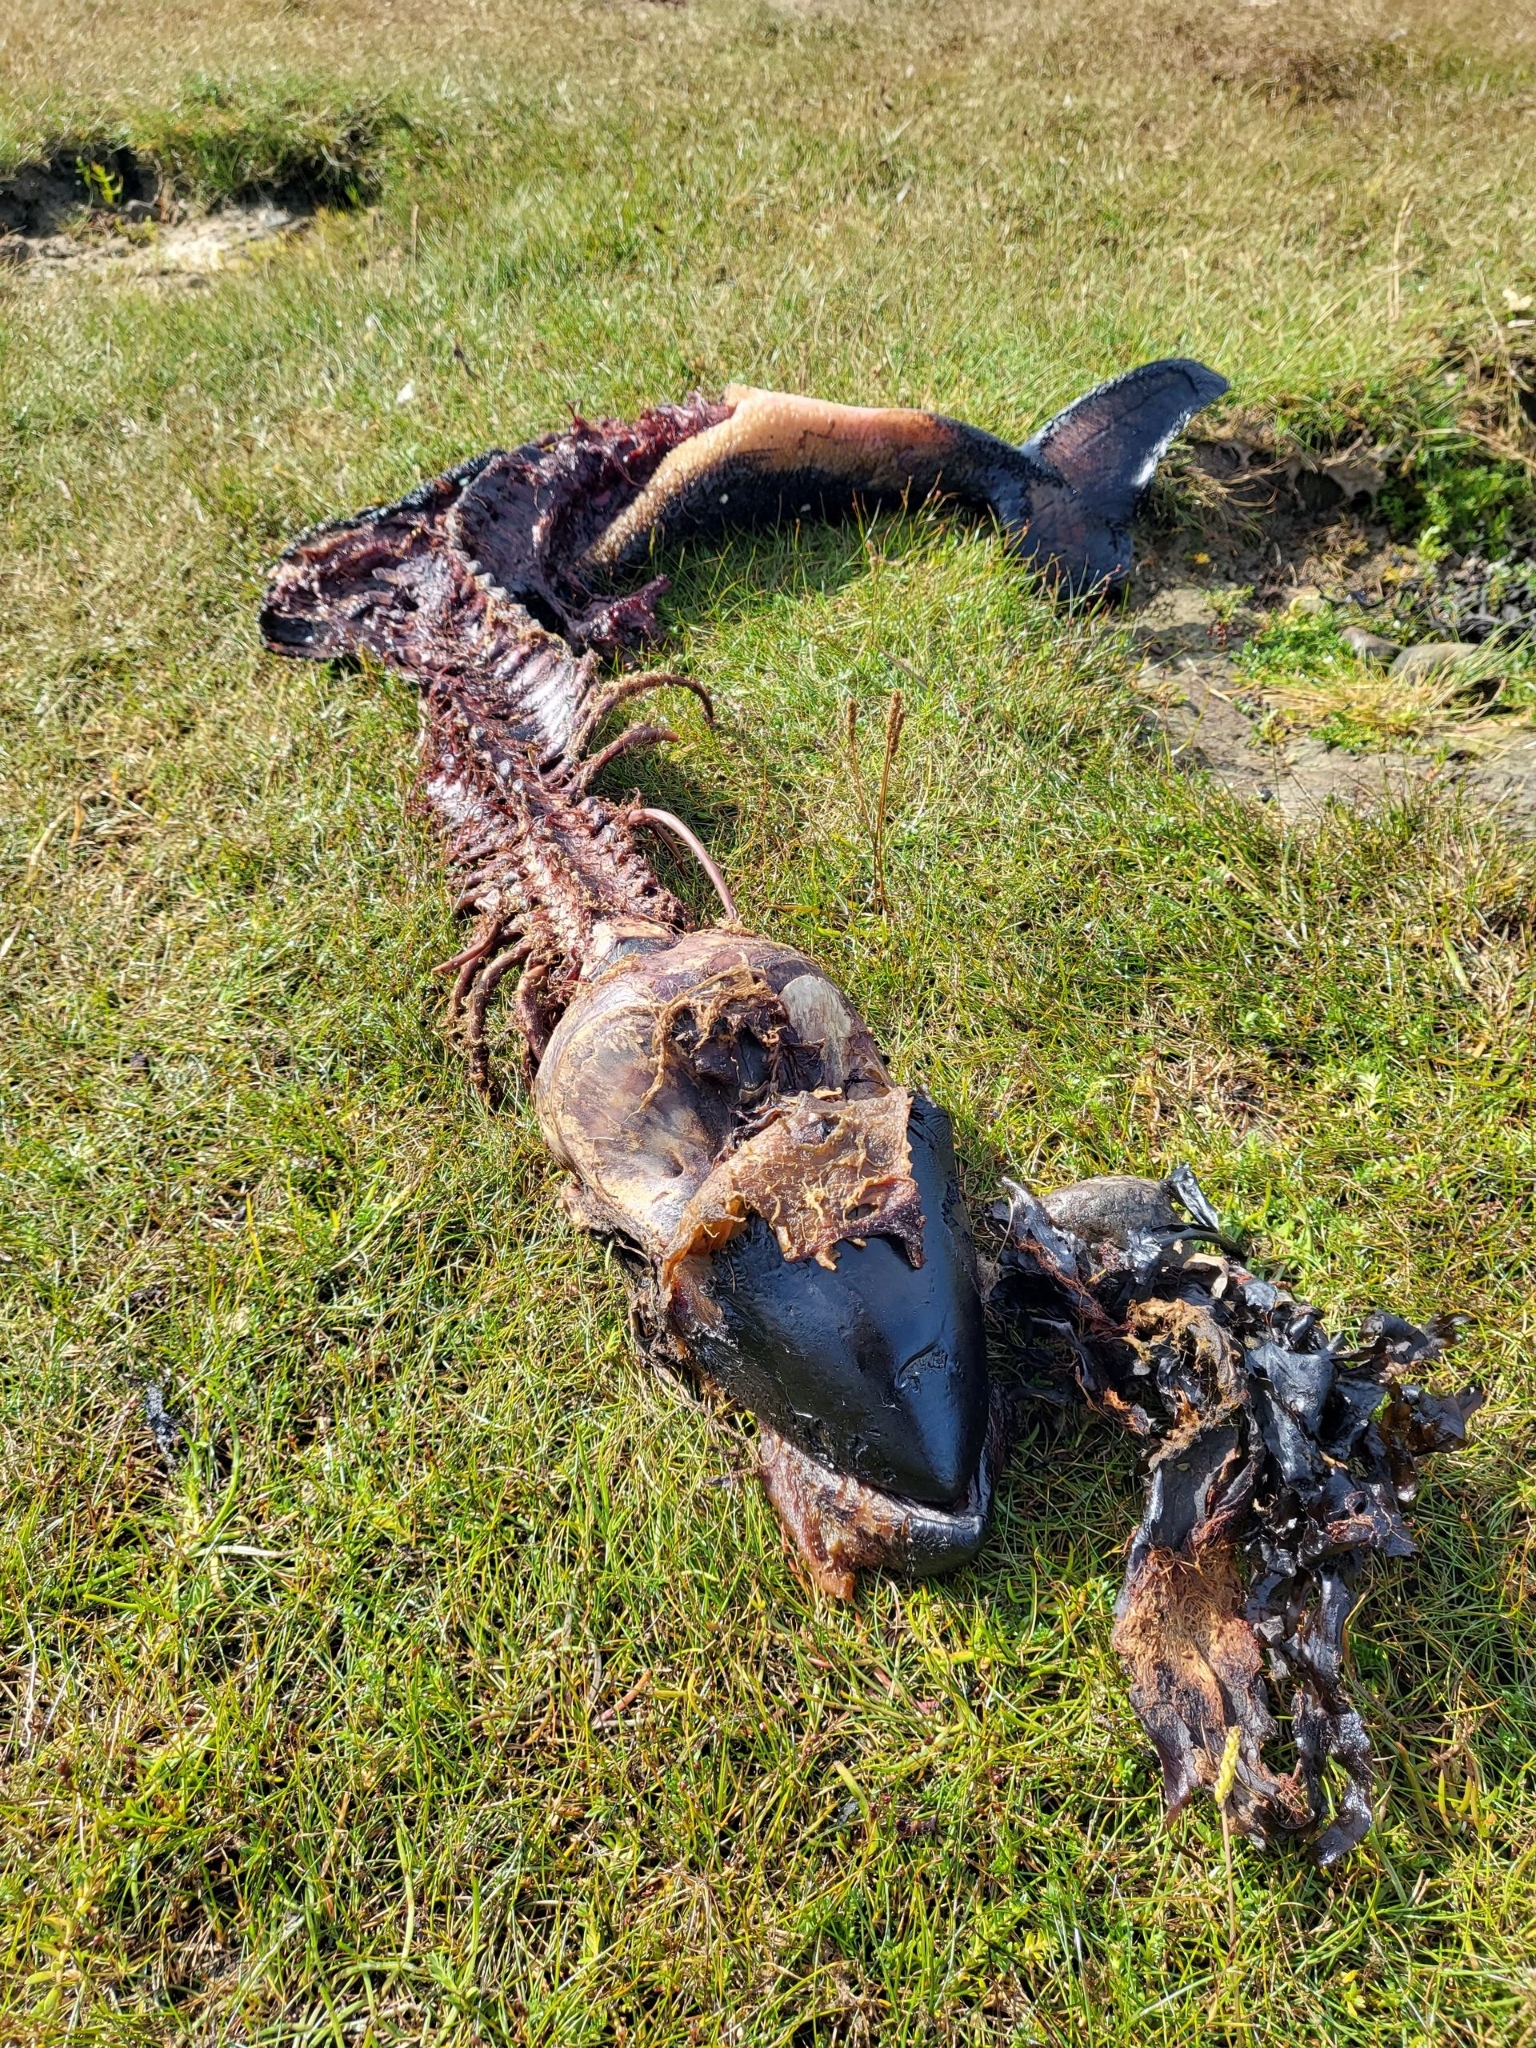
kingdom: Animalia
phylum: Chordata
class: Mammalia
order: Cetacea
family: Phocoenidae
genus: Phocoena
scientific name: Phocoena phocoena
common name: Harbor porpoise
